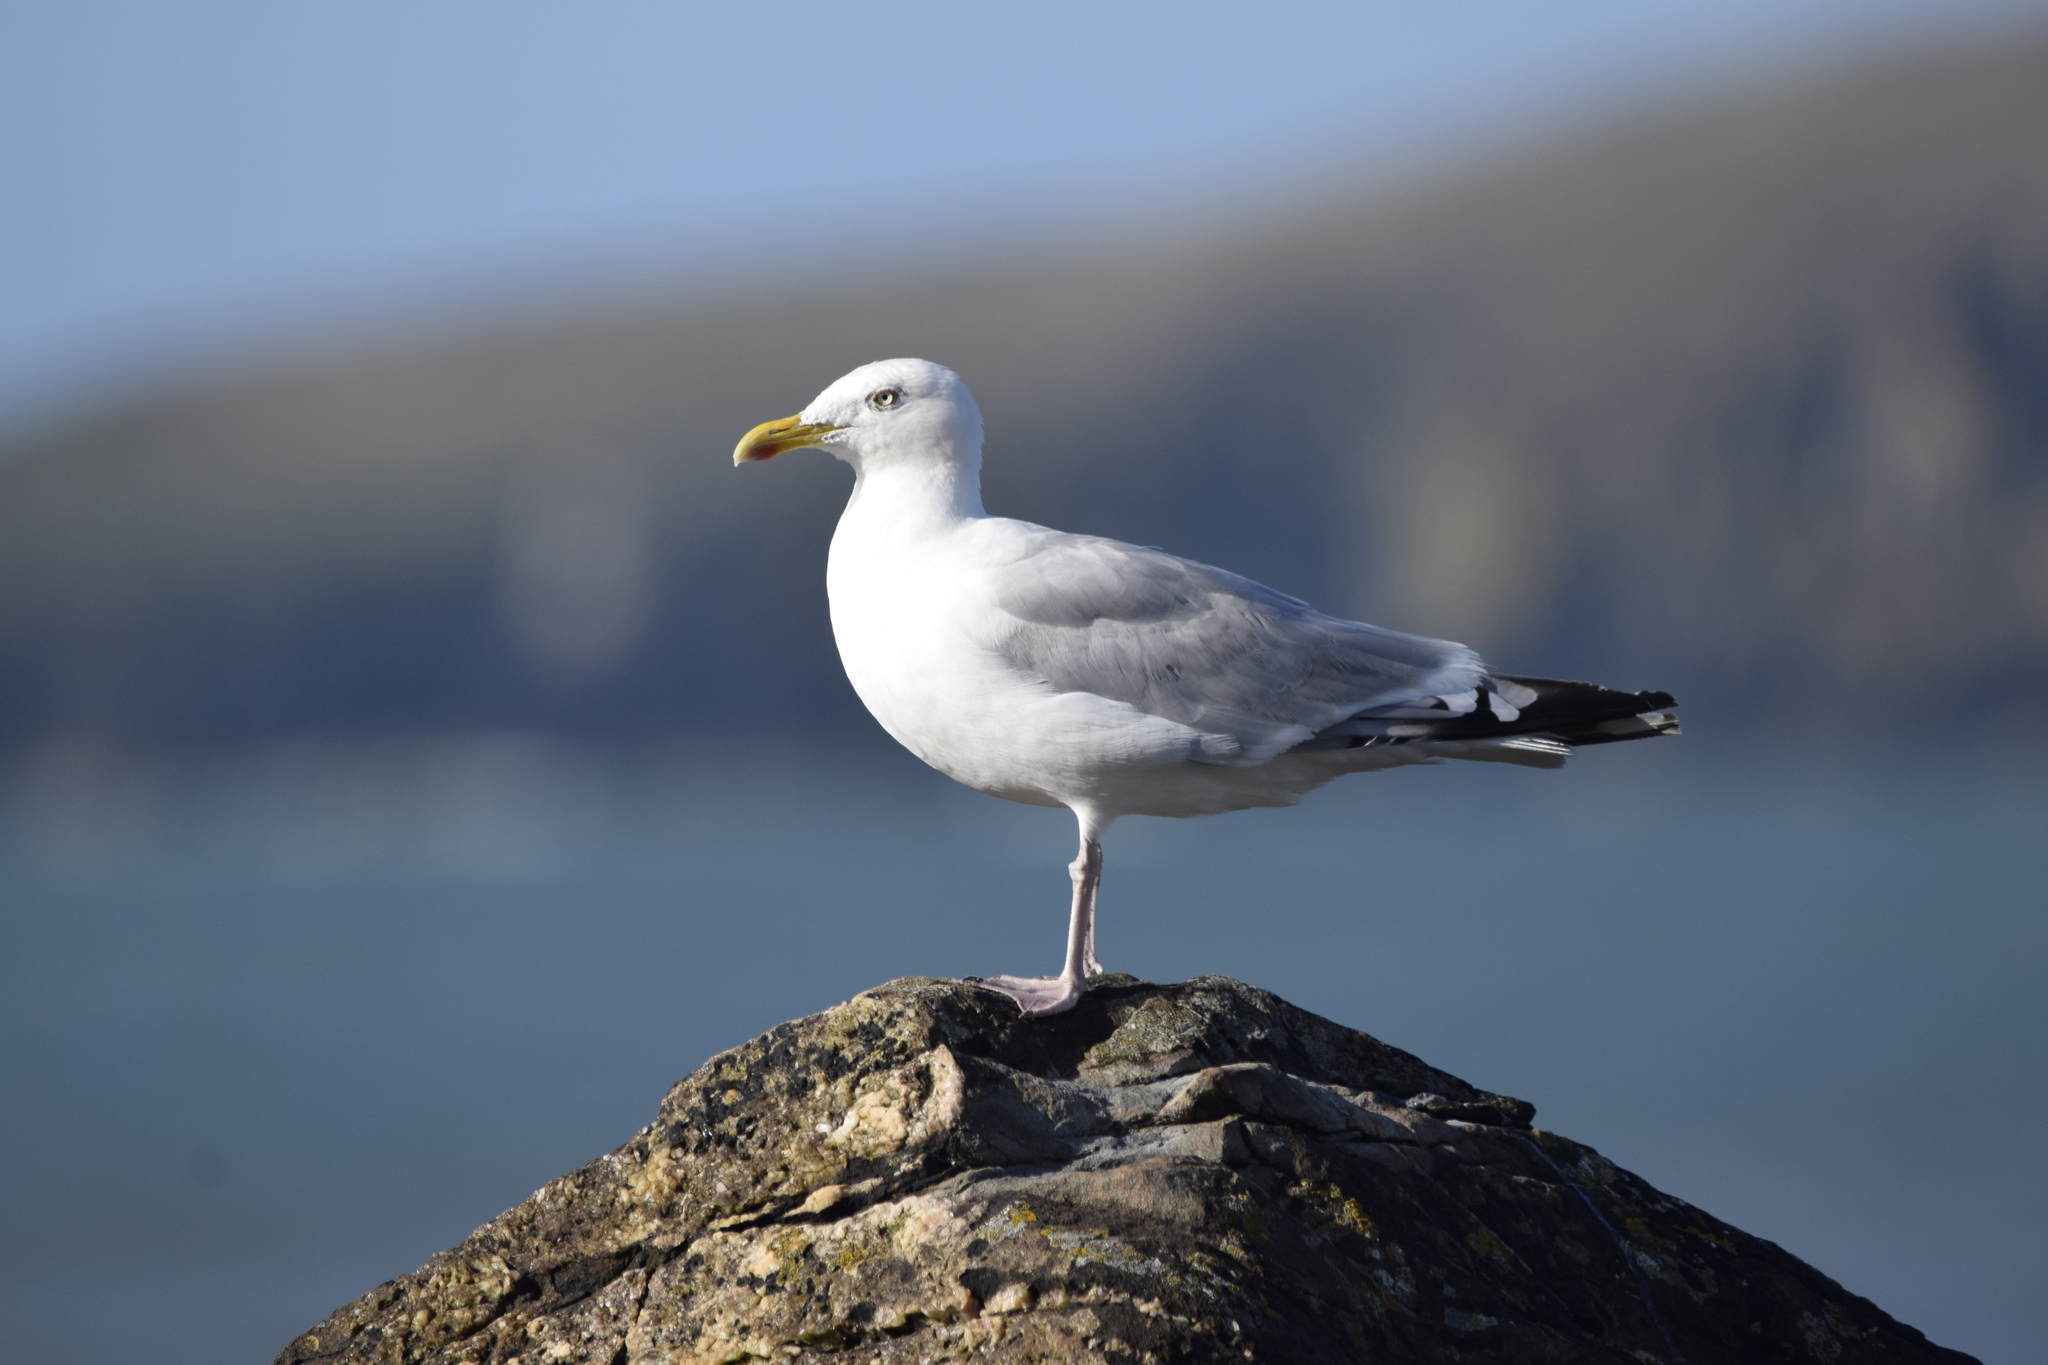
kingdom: Animalia
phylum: Chordata
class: Aves
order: Charadriiformes
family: Laridae
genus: Larus
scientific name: Larus argentatus
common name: Herring gull
